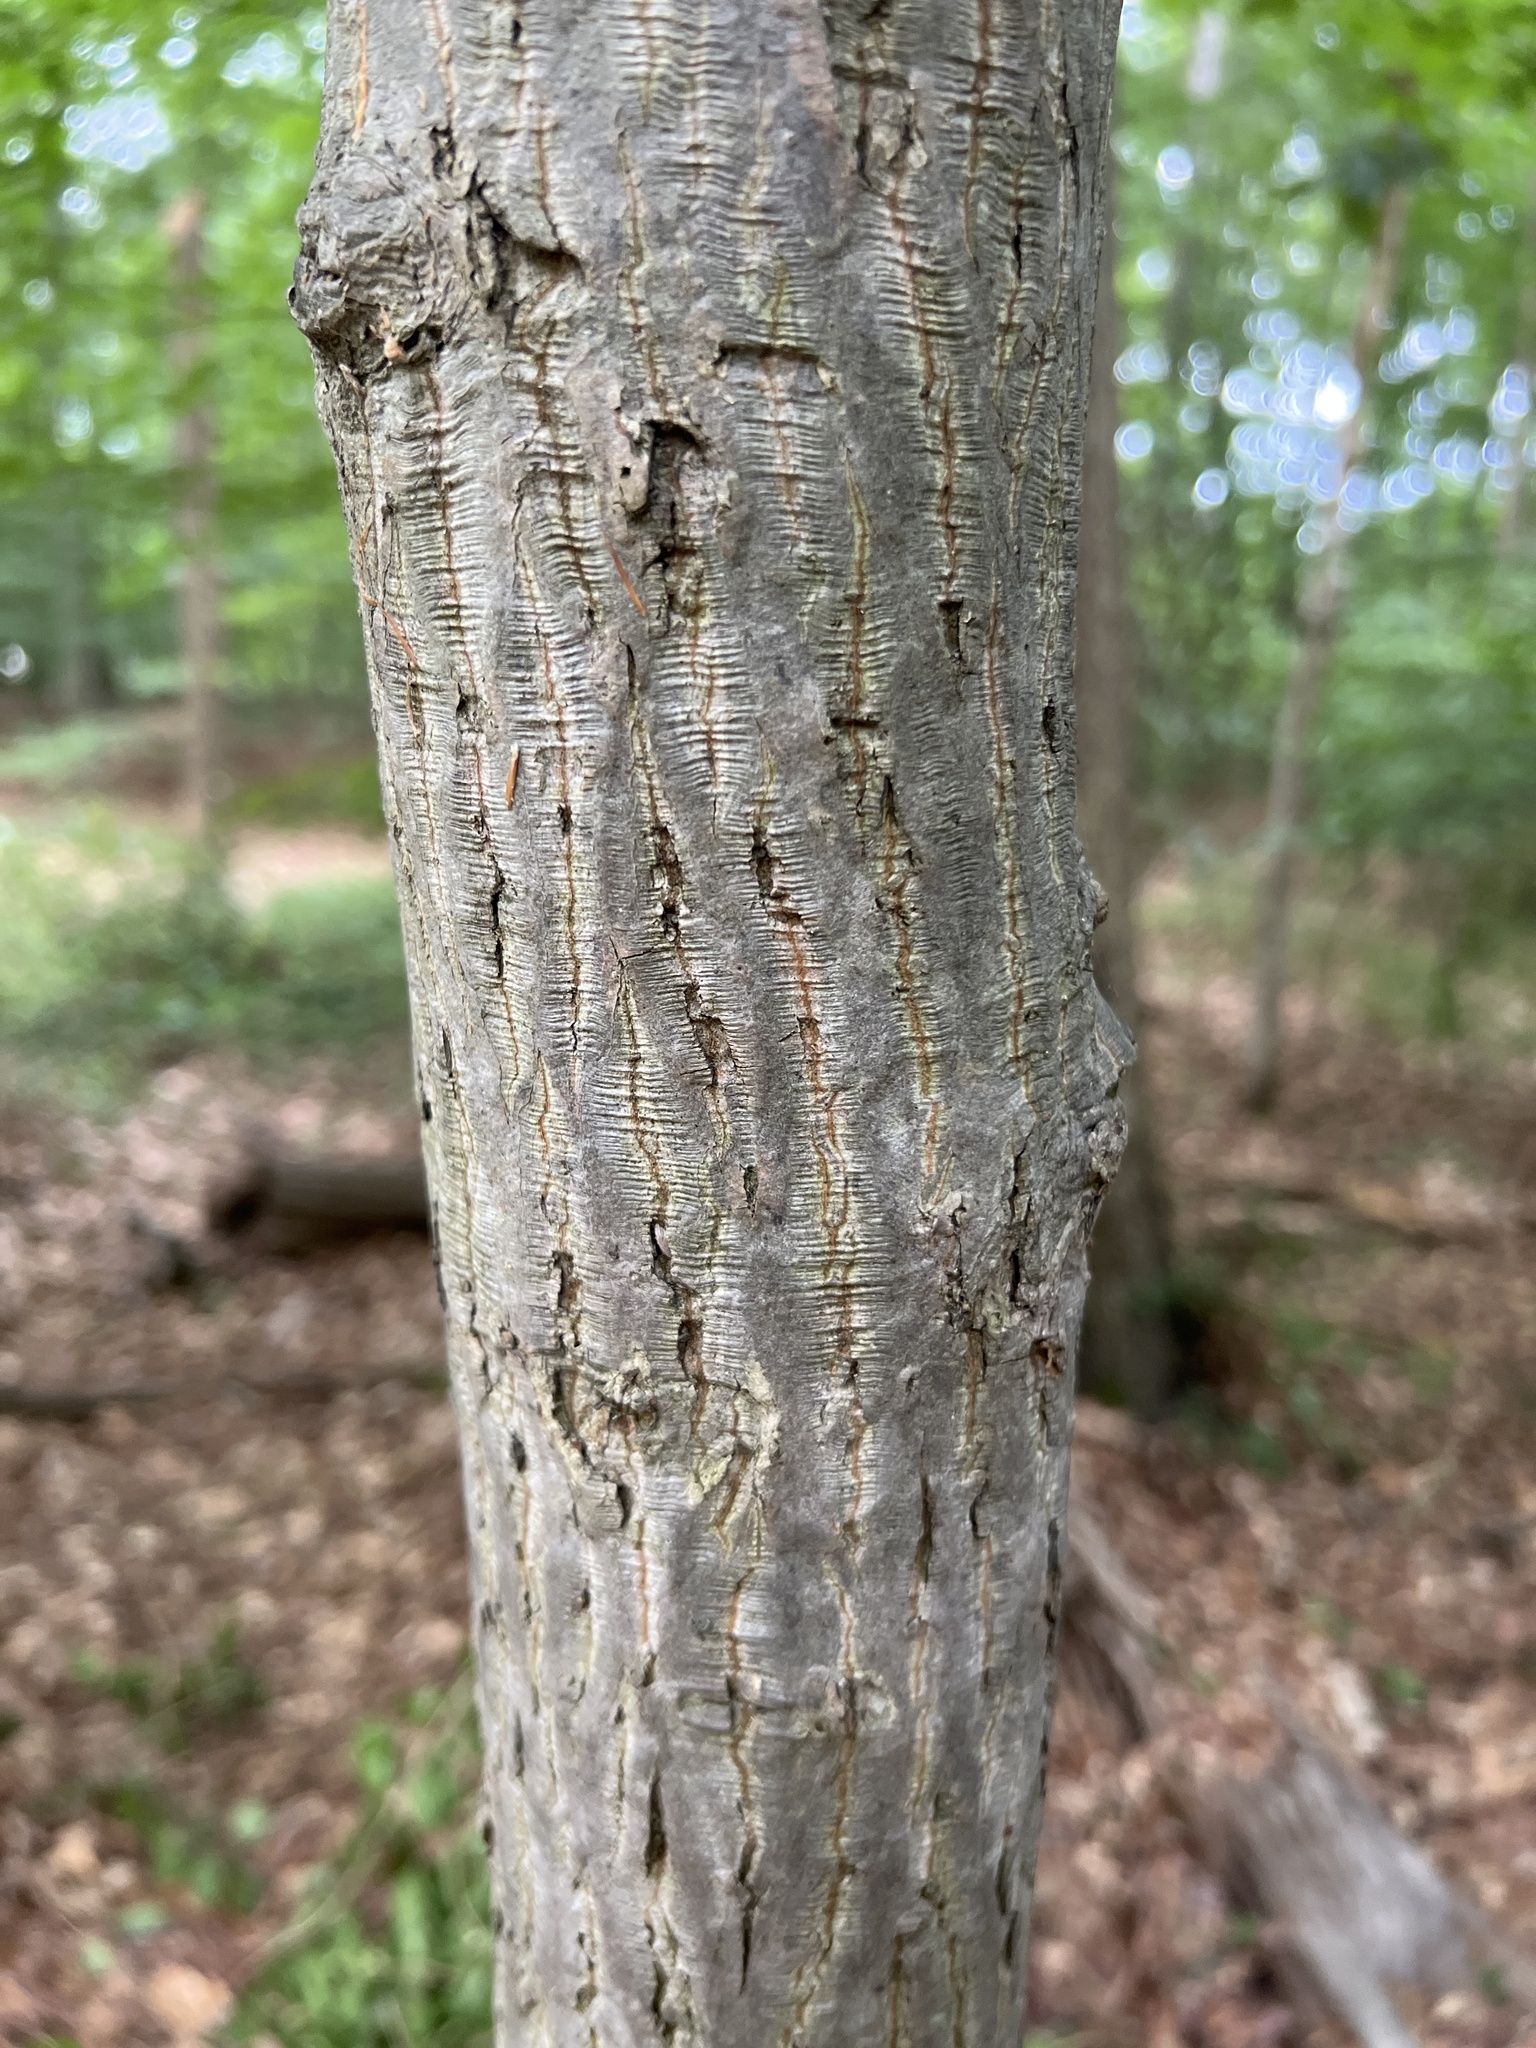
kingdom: Plantae
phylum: Tracheophyta
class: Magnoliopsida
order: Fagales
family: Juglandaceae
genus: Carya
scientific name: Carya alba
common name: Mockernut hickory
